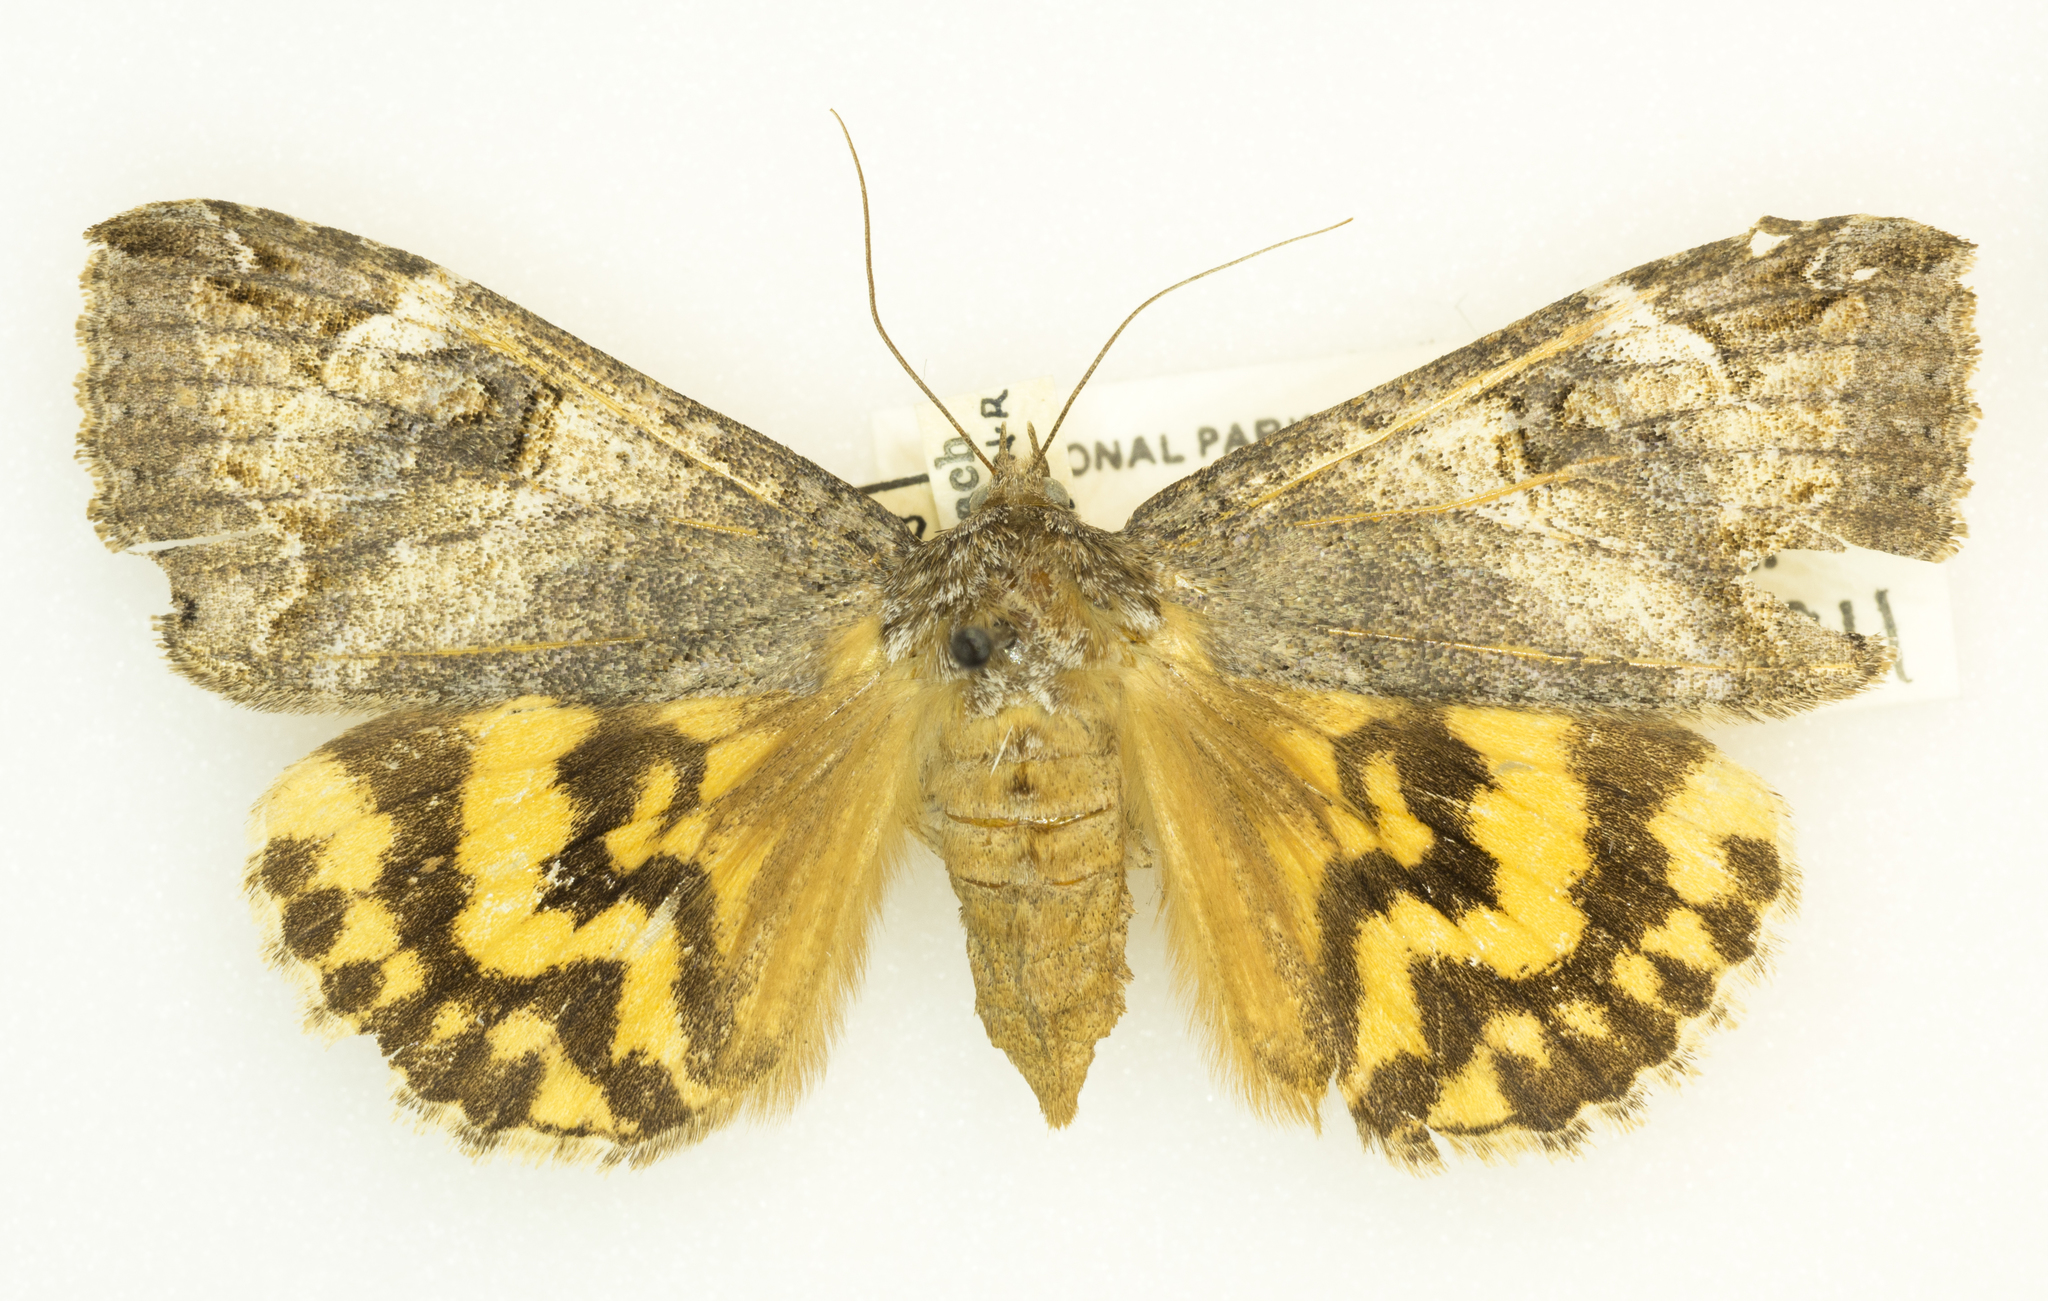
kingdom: Animalia
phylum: Arthropoda
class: Insecta
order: Lepidoptera
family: Erebidae
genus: Euparthenos
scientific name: Euparthenos nubilis
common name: Locust underwing
